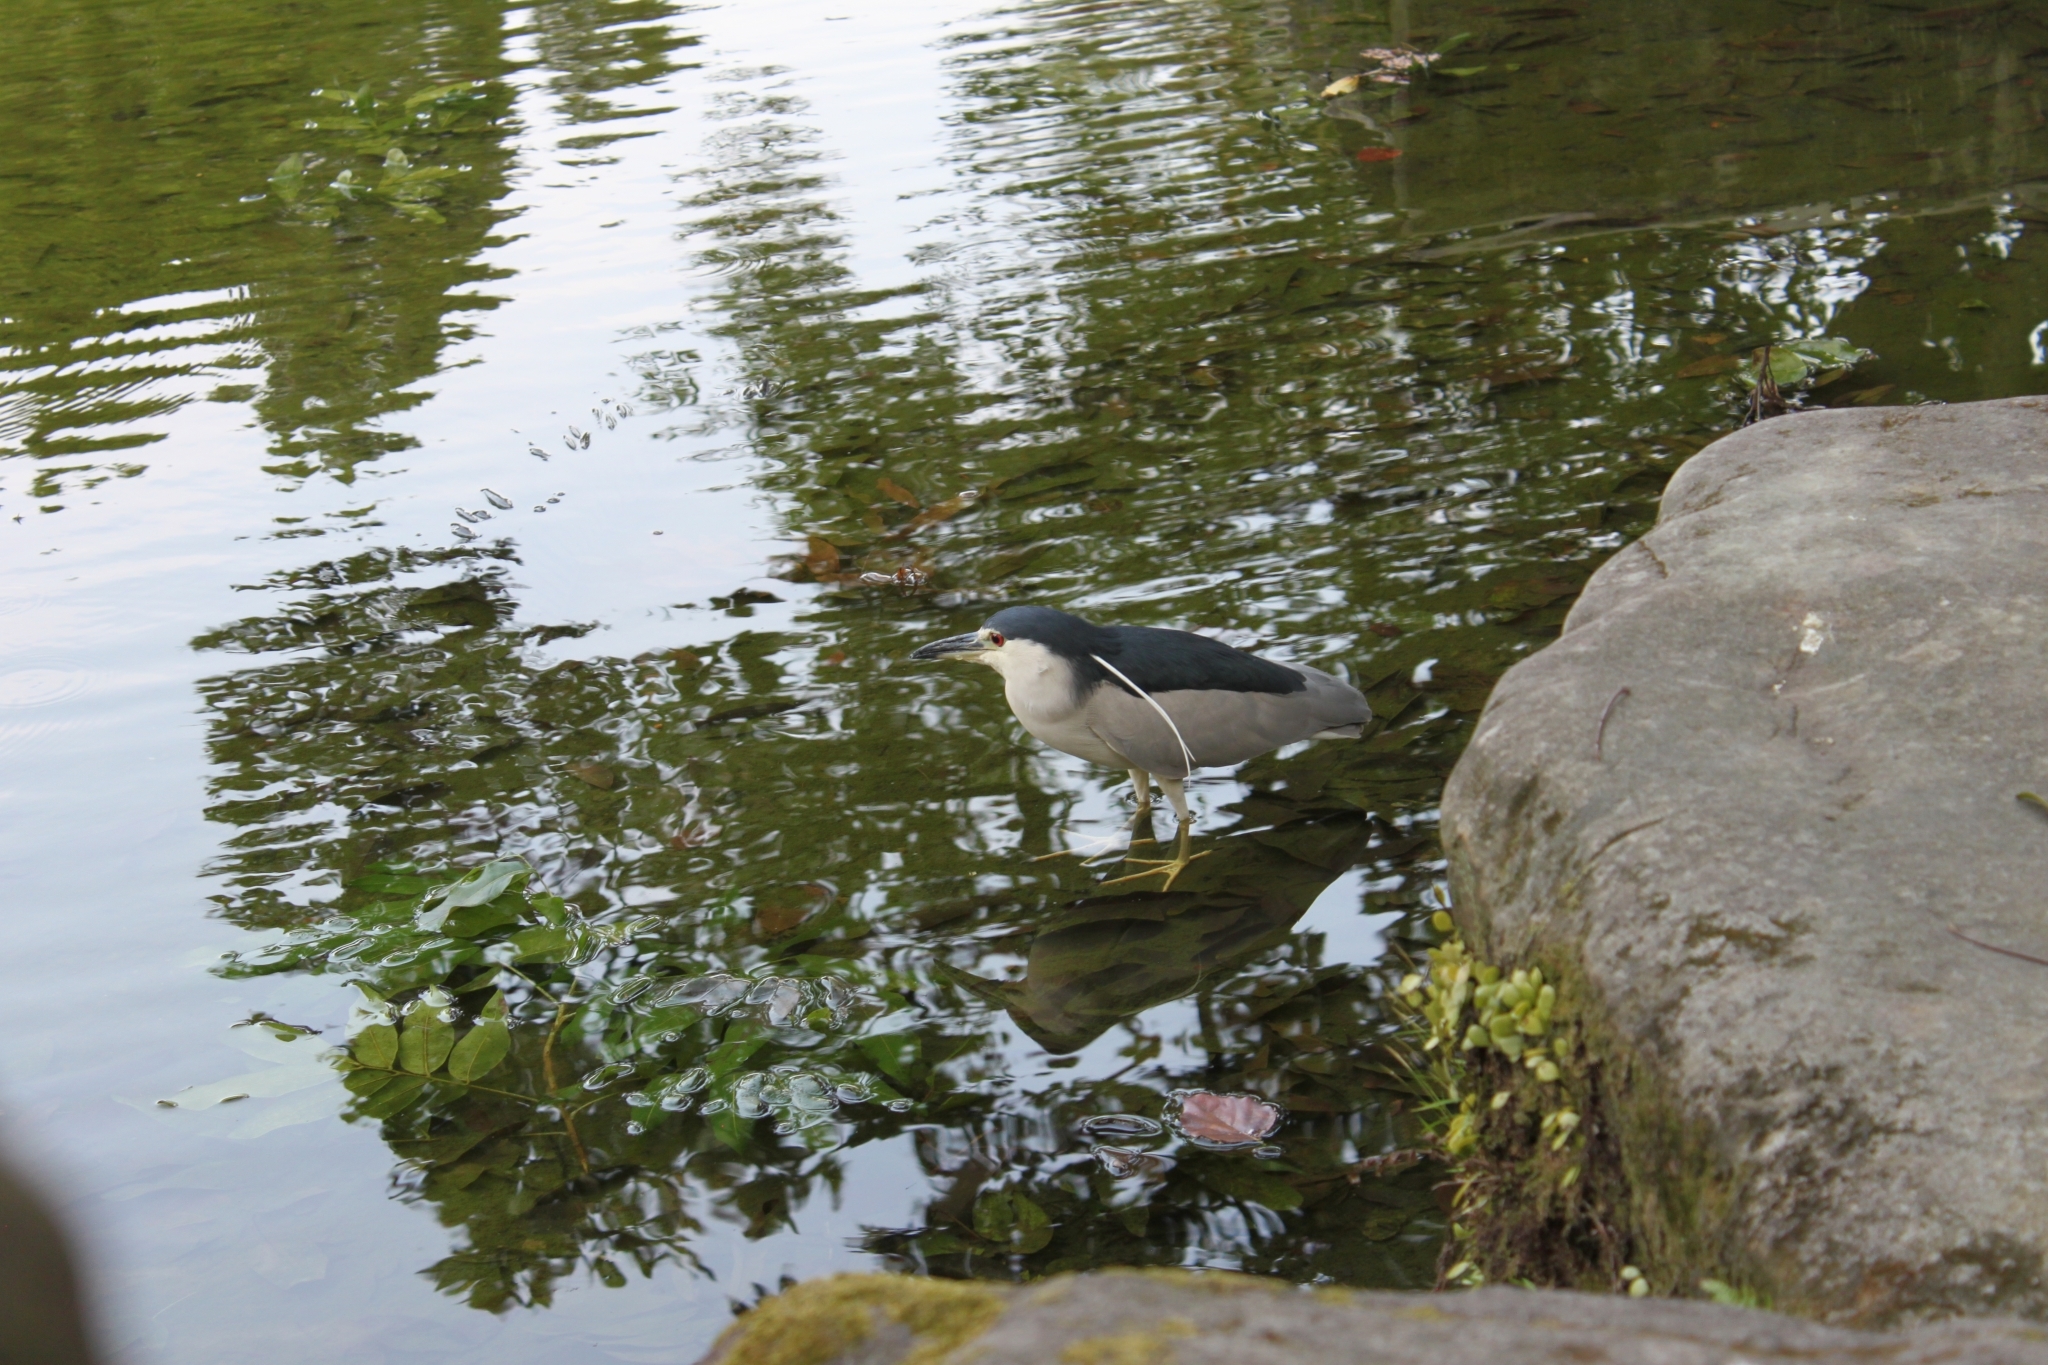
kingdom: Animalia
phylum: Chordata
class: Aves
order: Pelecaniformes
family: Ardeidae
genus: Nycticorax
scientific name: Nycticorax nycticorax
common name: Black-crowned night heron
